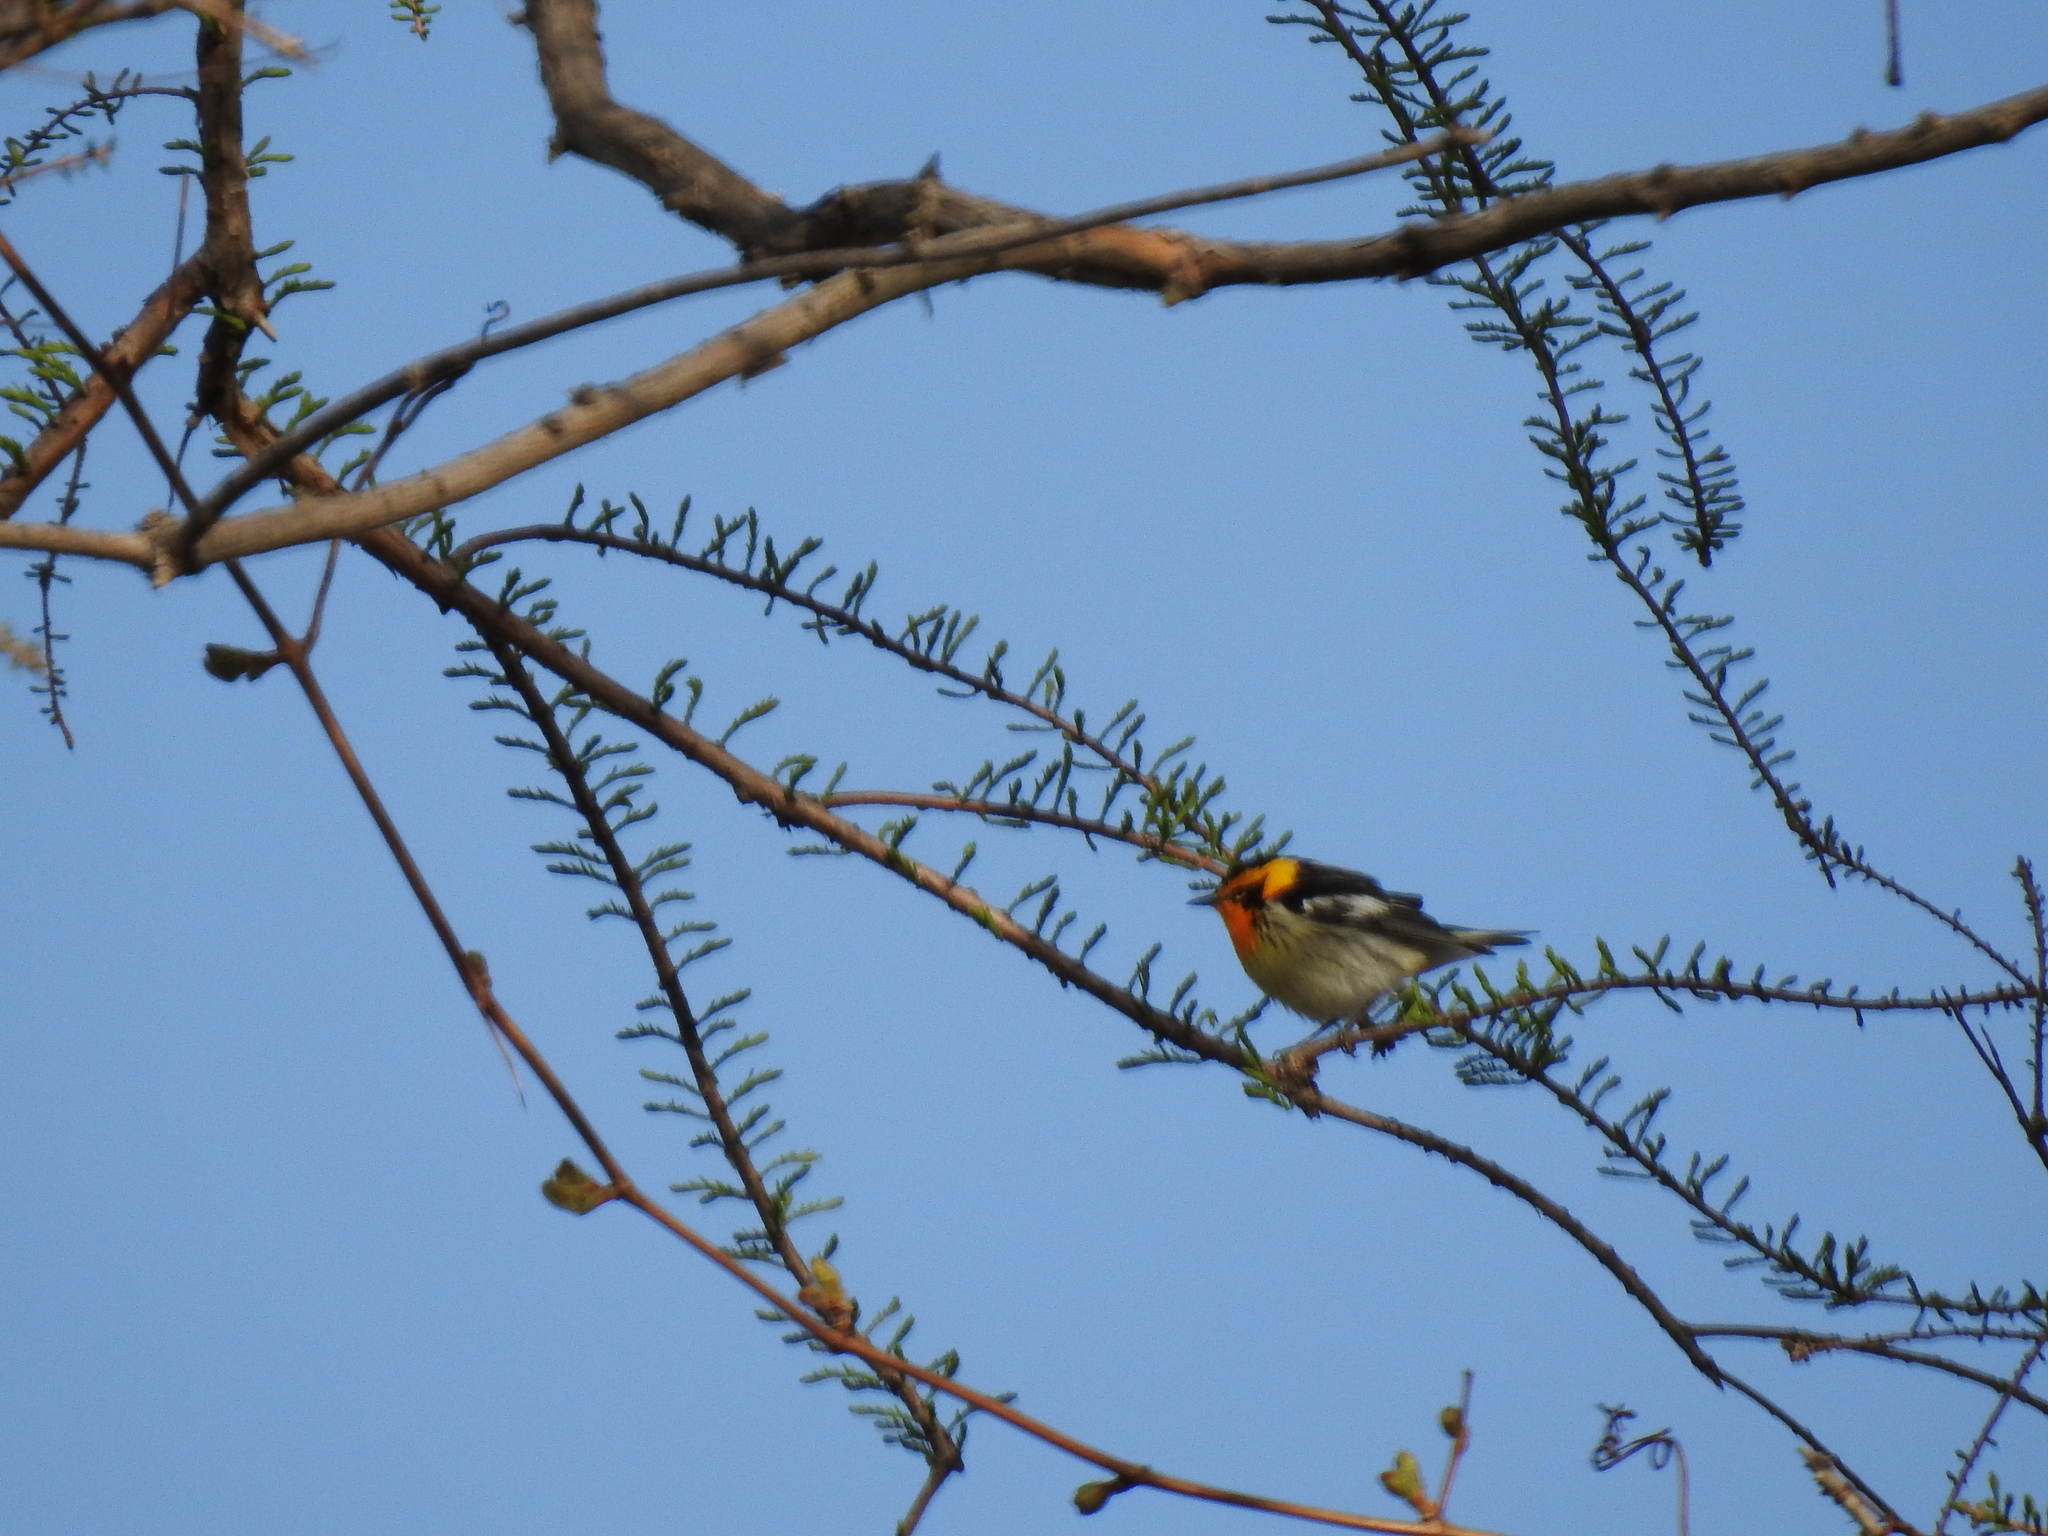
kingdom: Animalia
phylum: Chordata
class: Aves
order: Passeriformes
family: Parulidae
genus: Setophaga
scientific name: Setophaga fusca
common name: Blackburnian warbler
